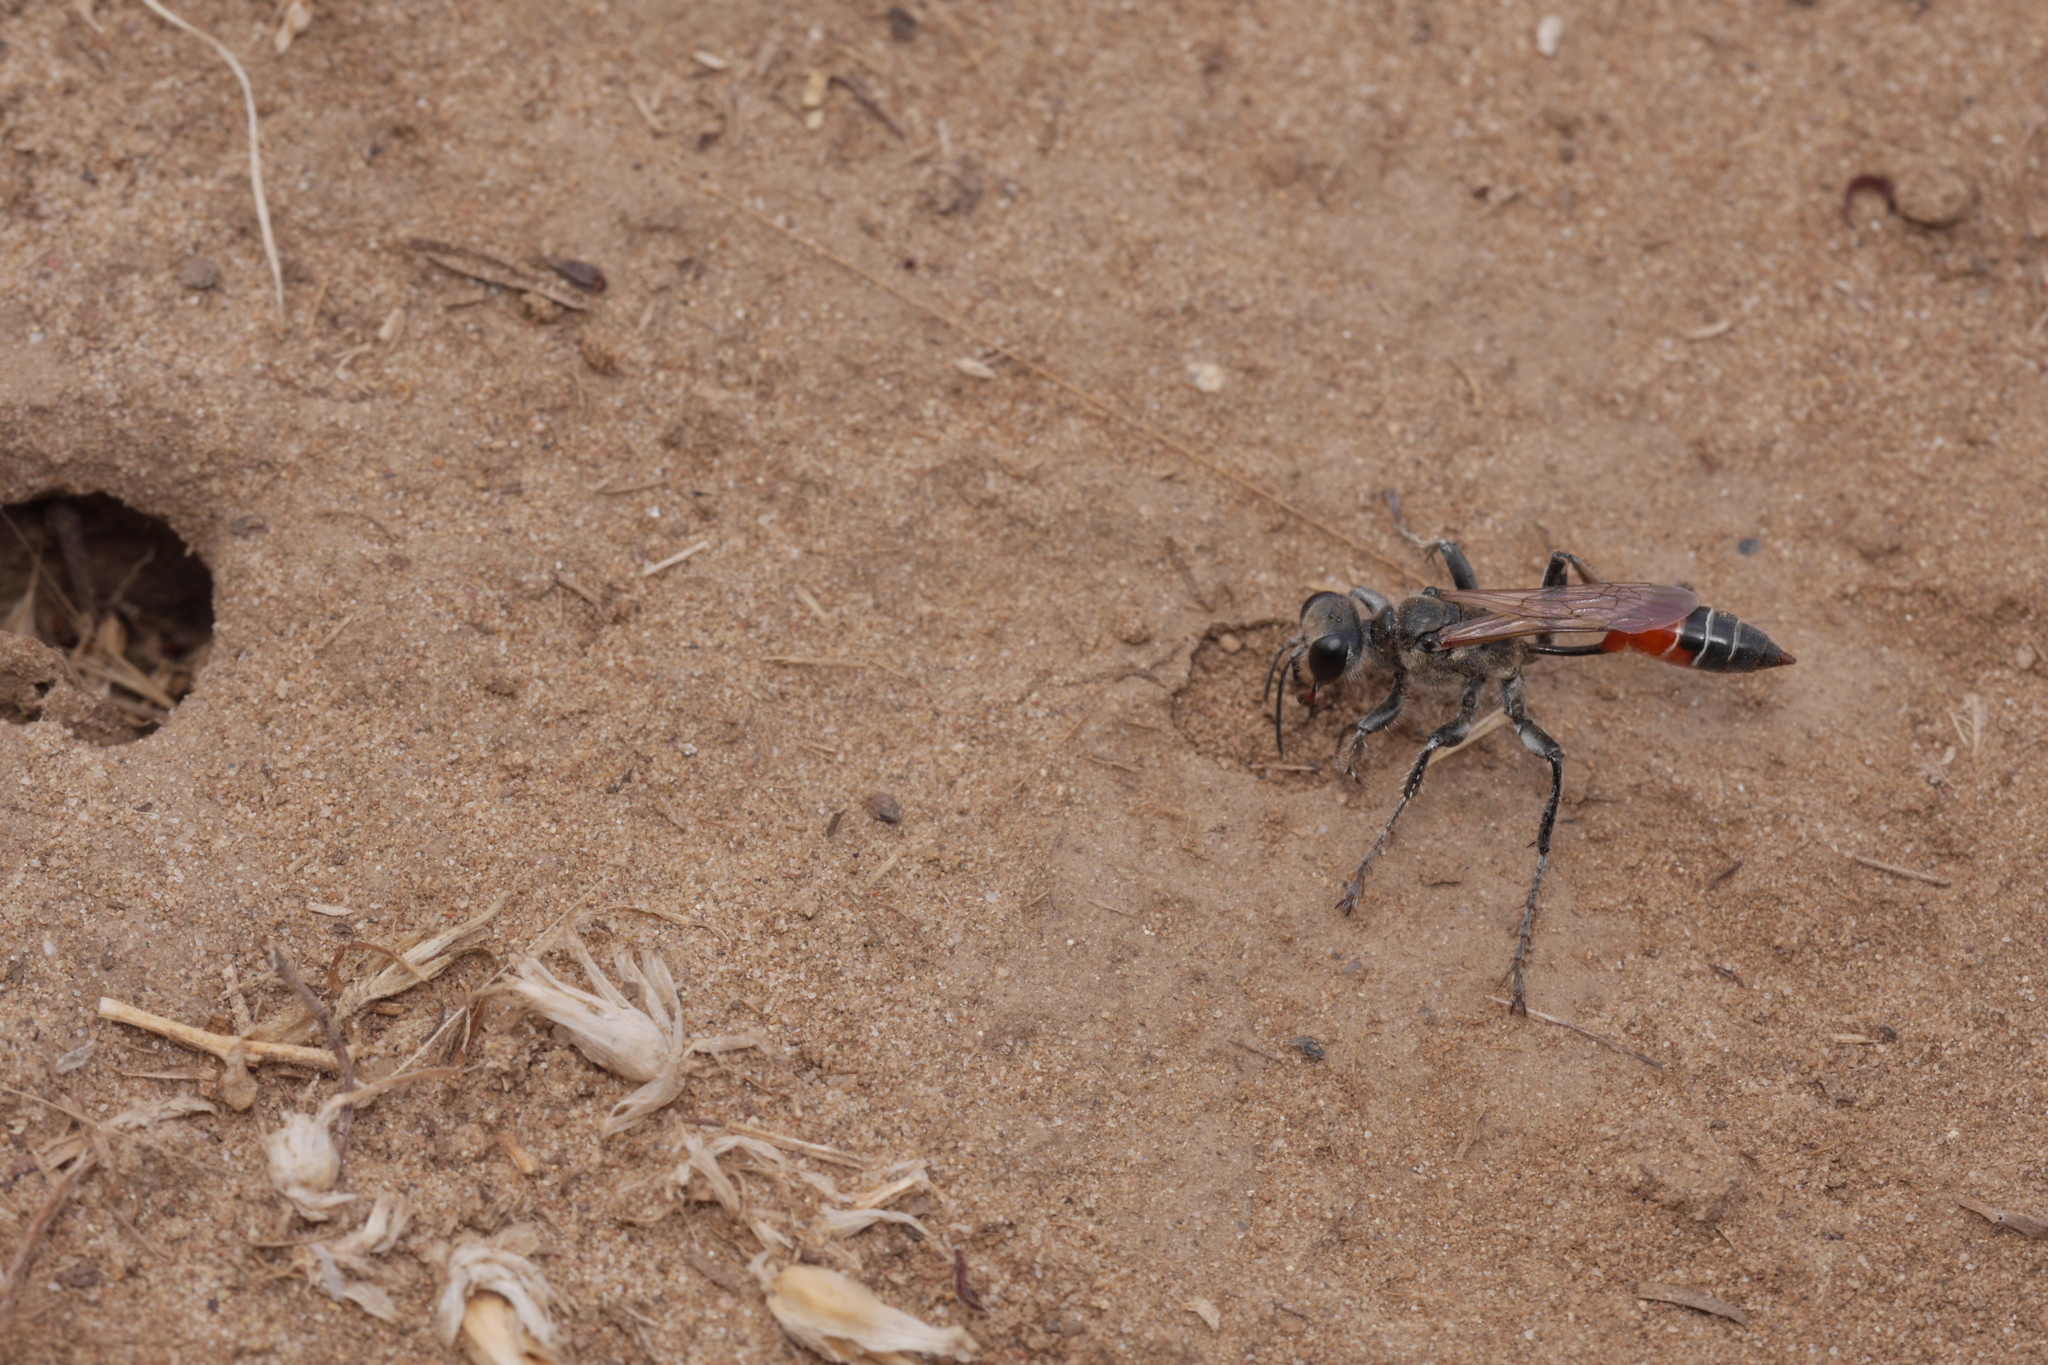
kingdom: Animalia
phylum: Arthropoda
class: Insecta
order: Hymenoptera
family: Sphecidae
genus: Prionyx
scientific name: Prionyx kirbii
